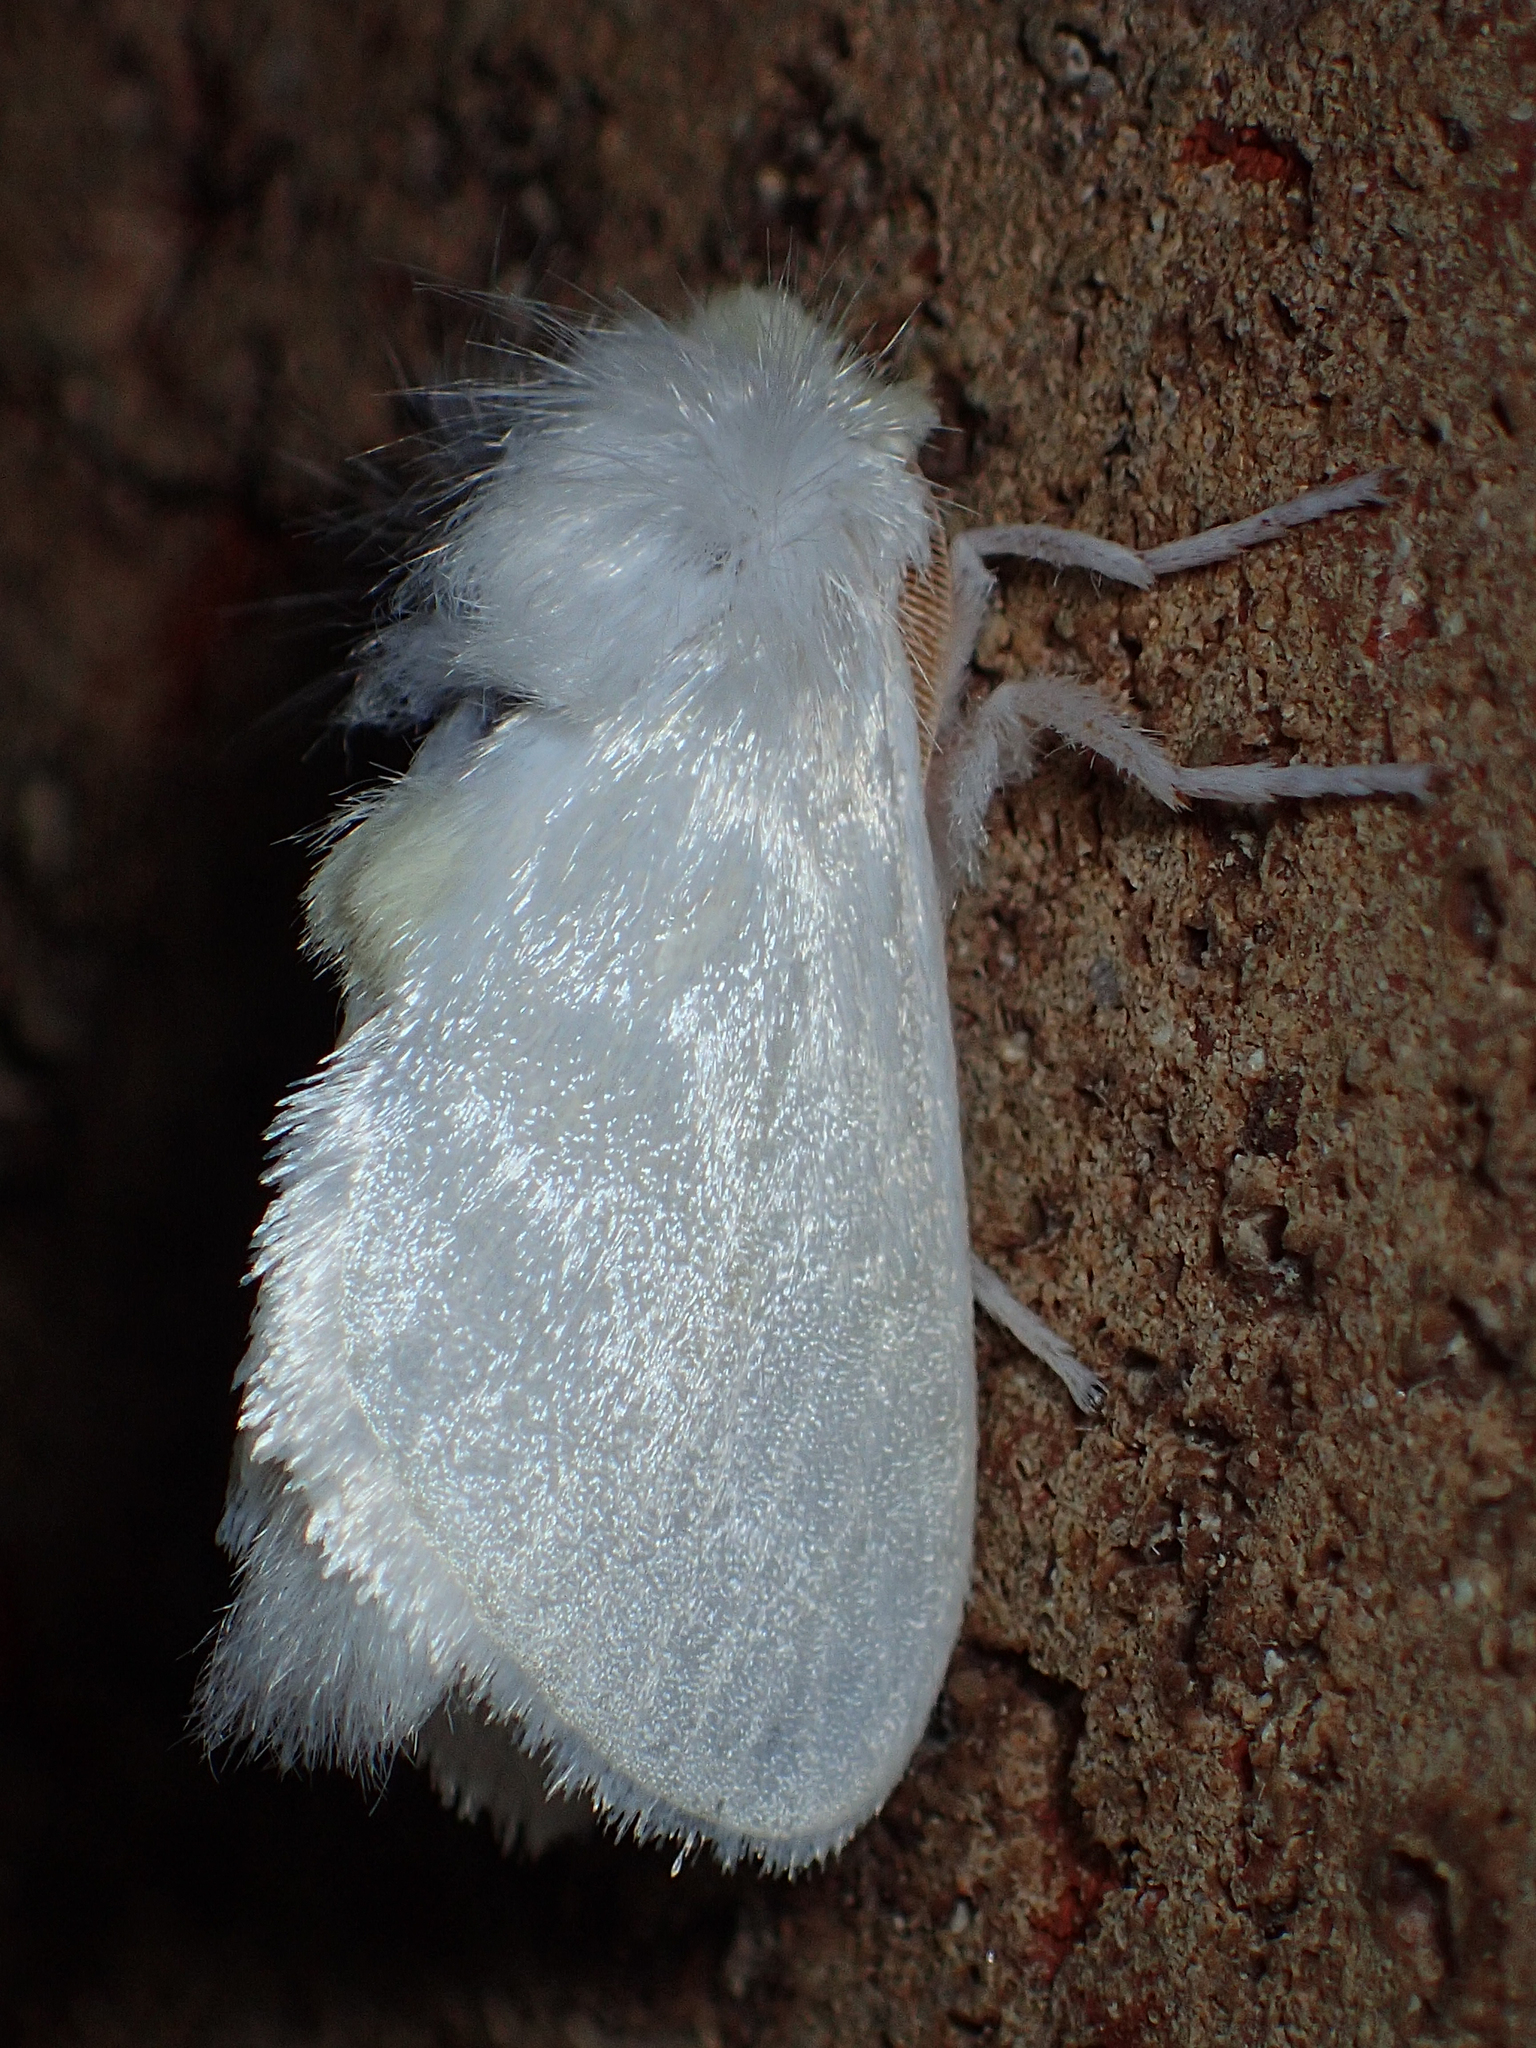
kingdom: Animalia
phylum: Arthropoda
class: Insecta
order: Lepidoptera
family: Megalopygidae
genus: Norape
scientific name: Norape cretata
